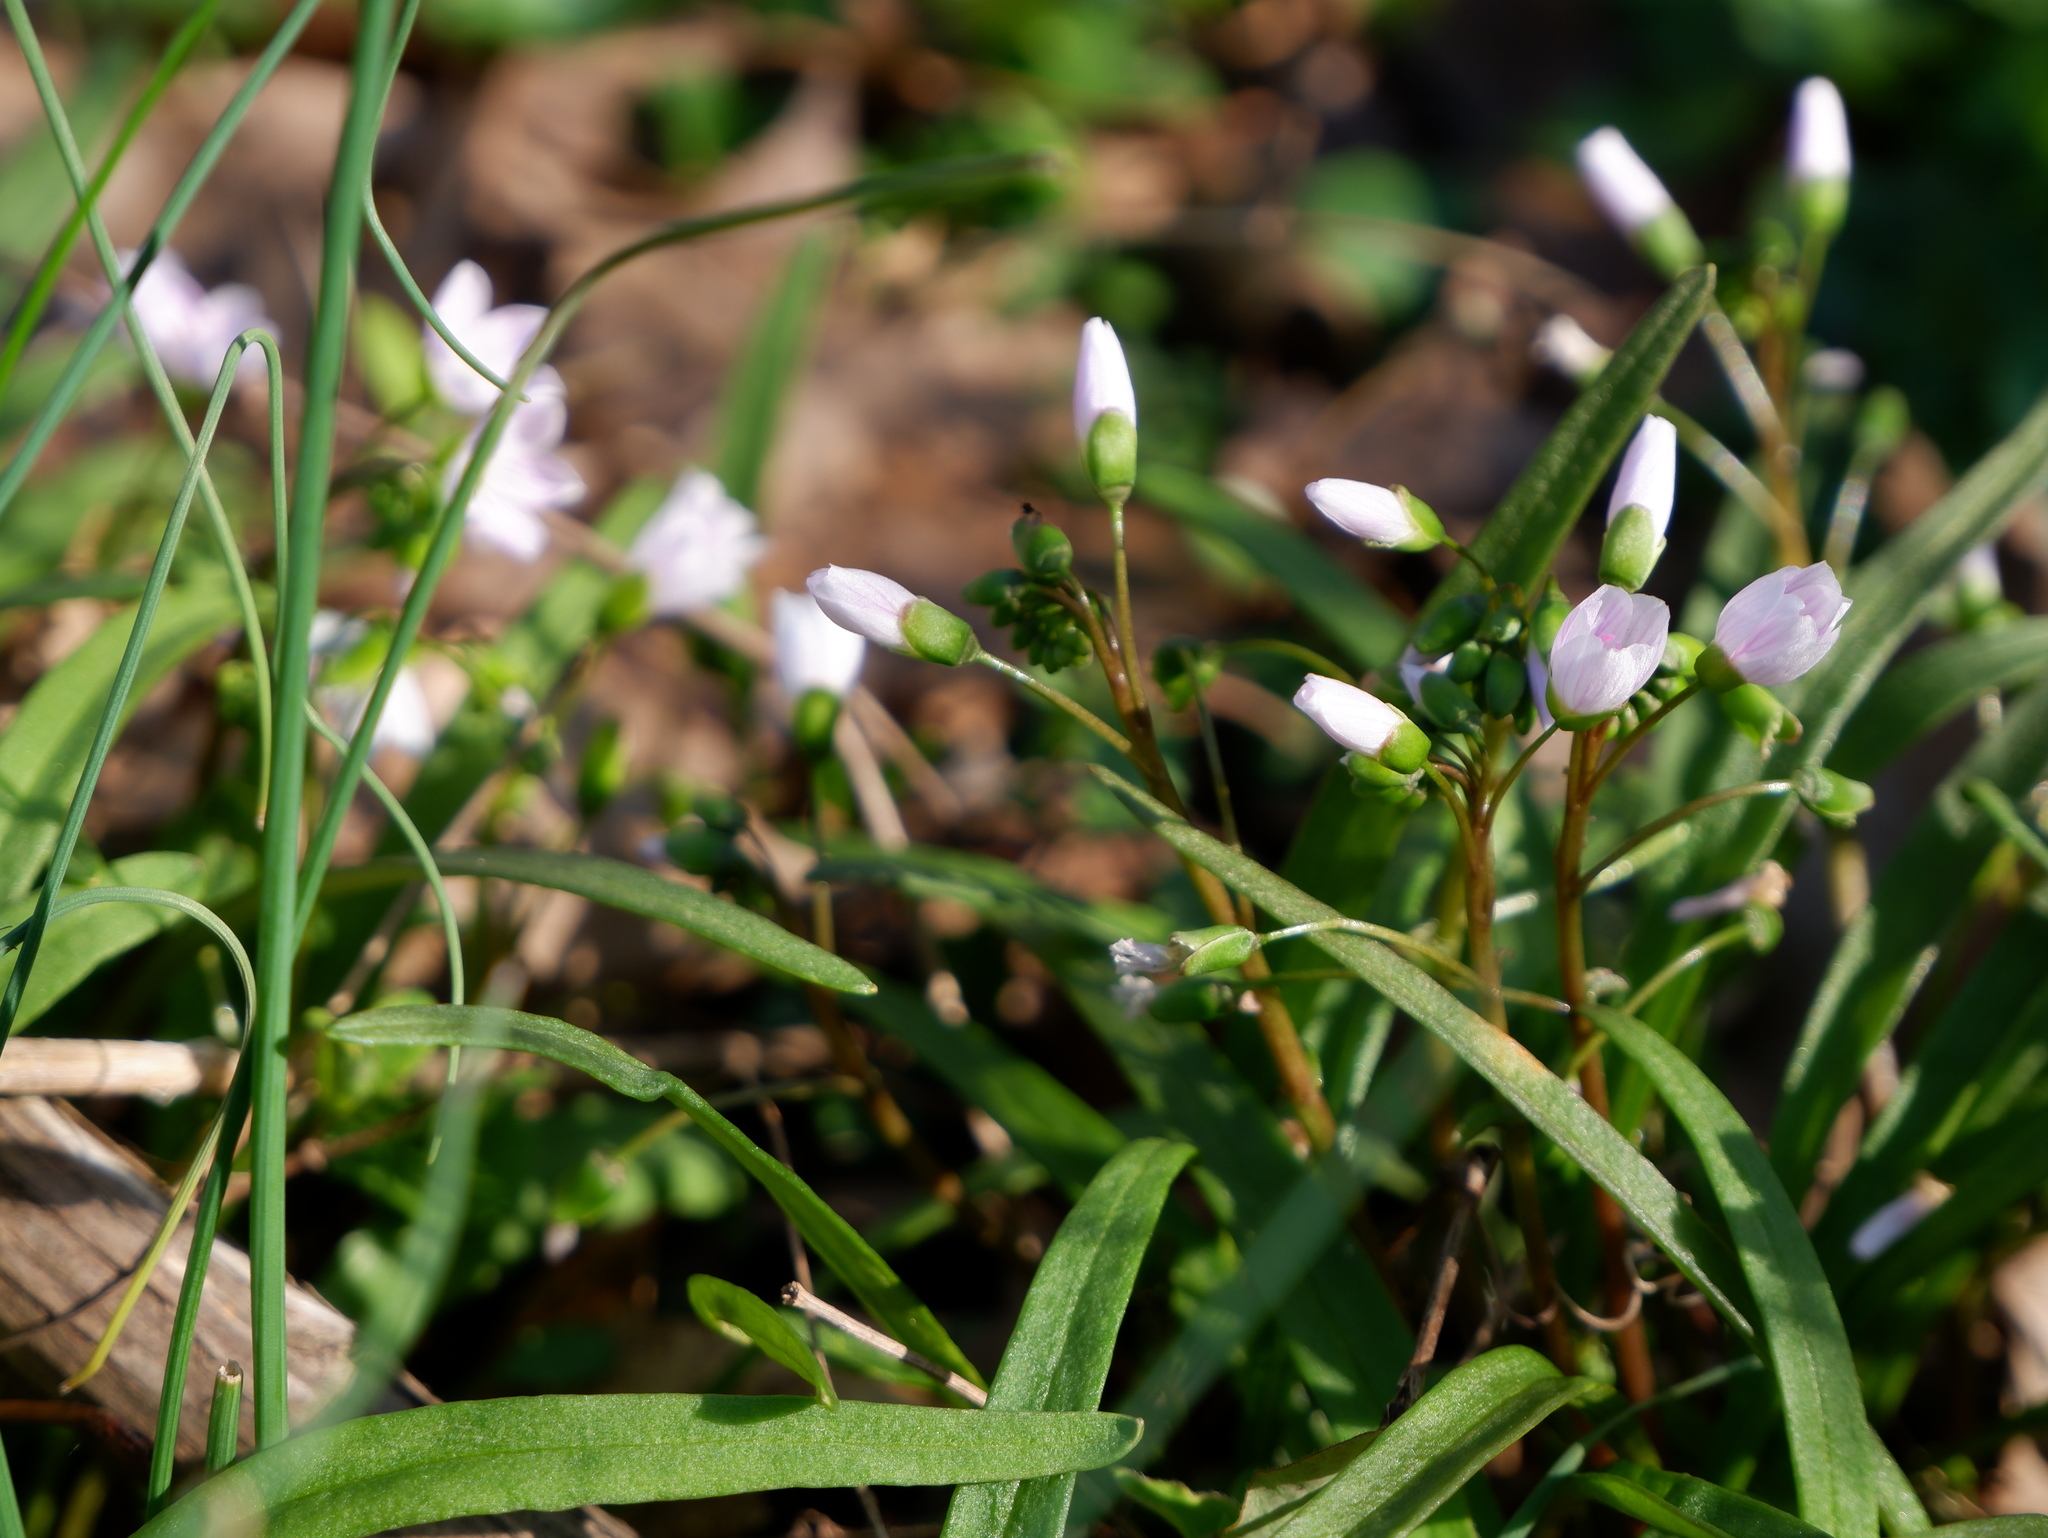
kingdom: Plantae
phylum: Tracheophyta
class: Magnoliopsida
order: Caryophyllales
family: Montiaceae
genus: Claytonia
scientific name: Claytonia virginica
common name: Virginia springbeauty
